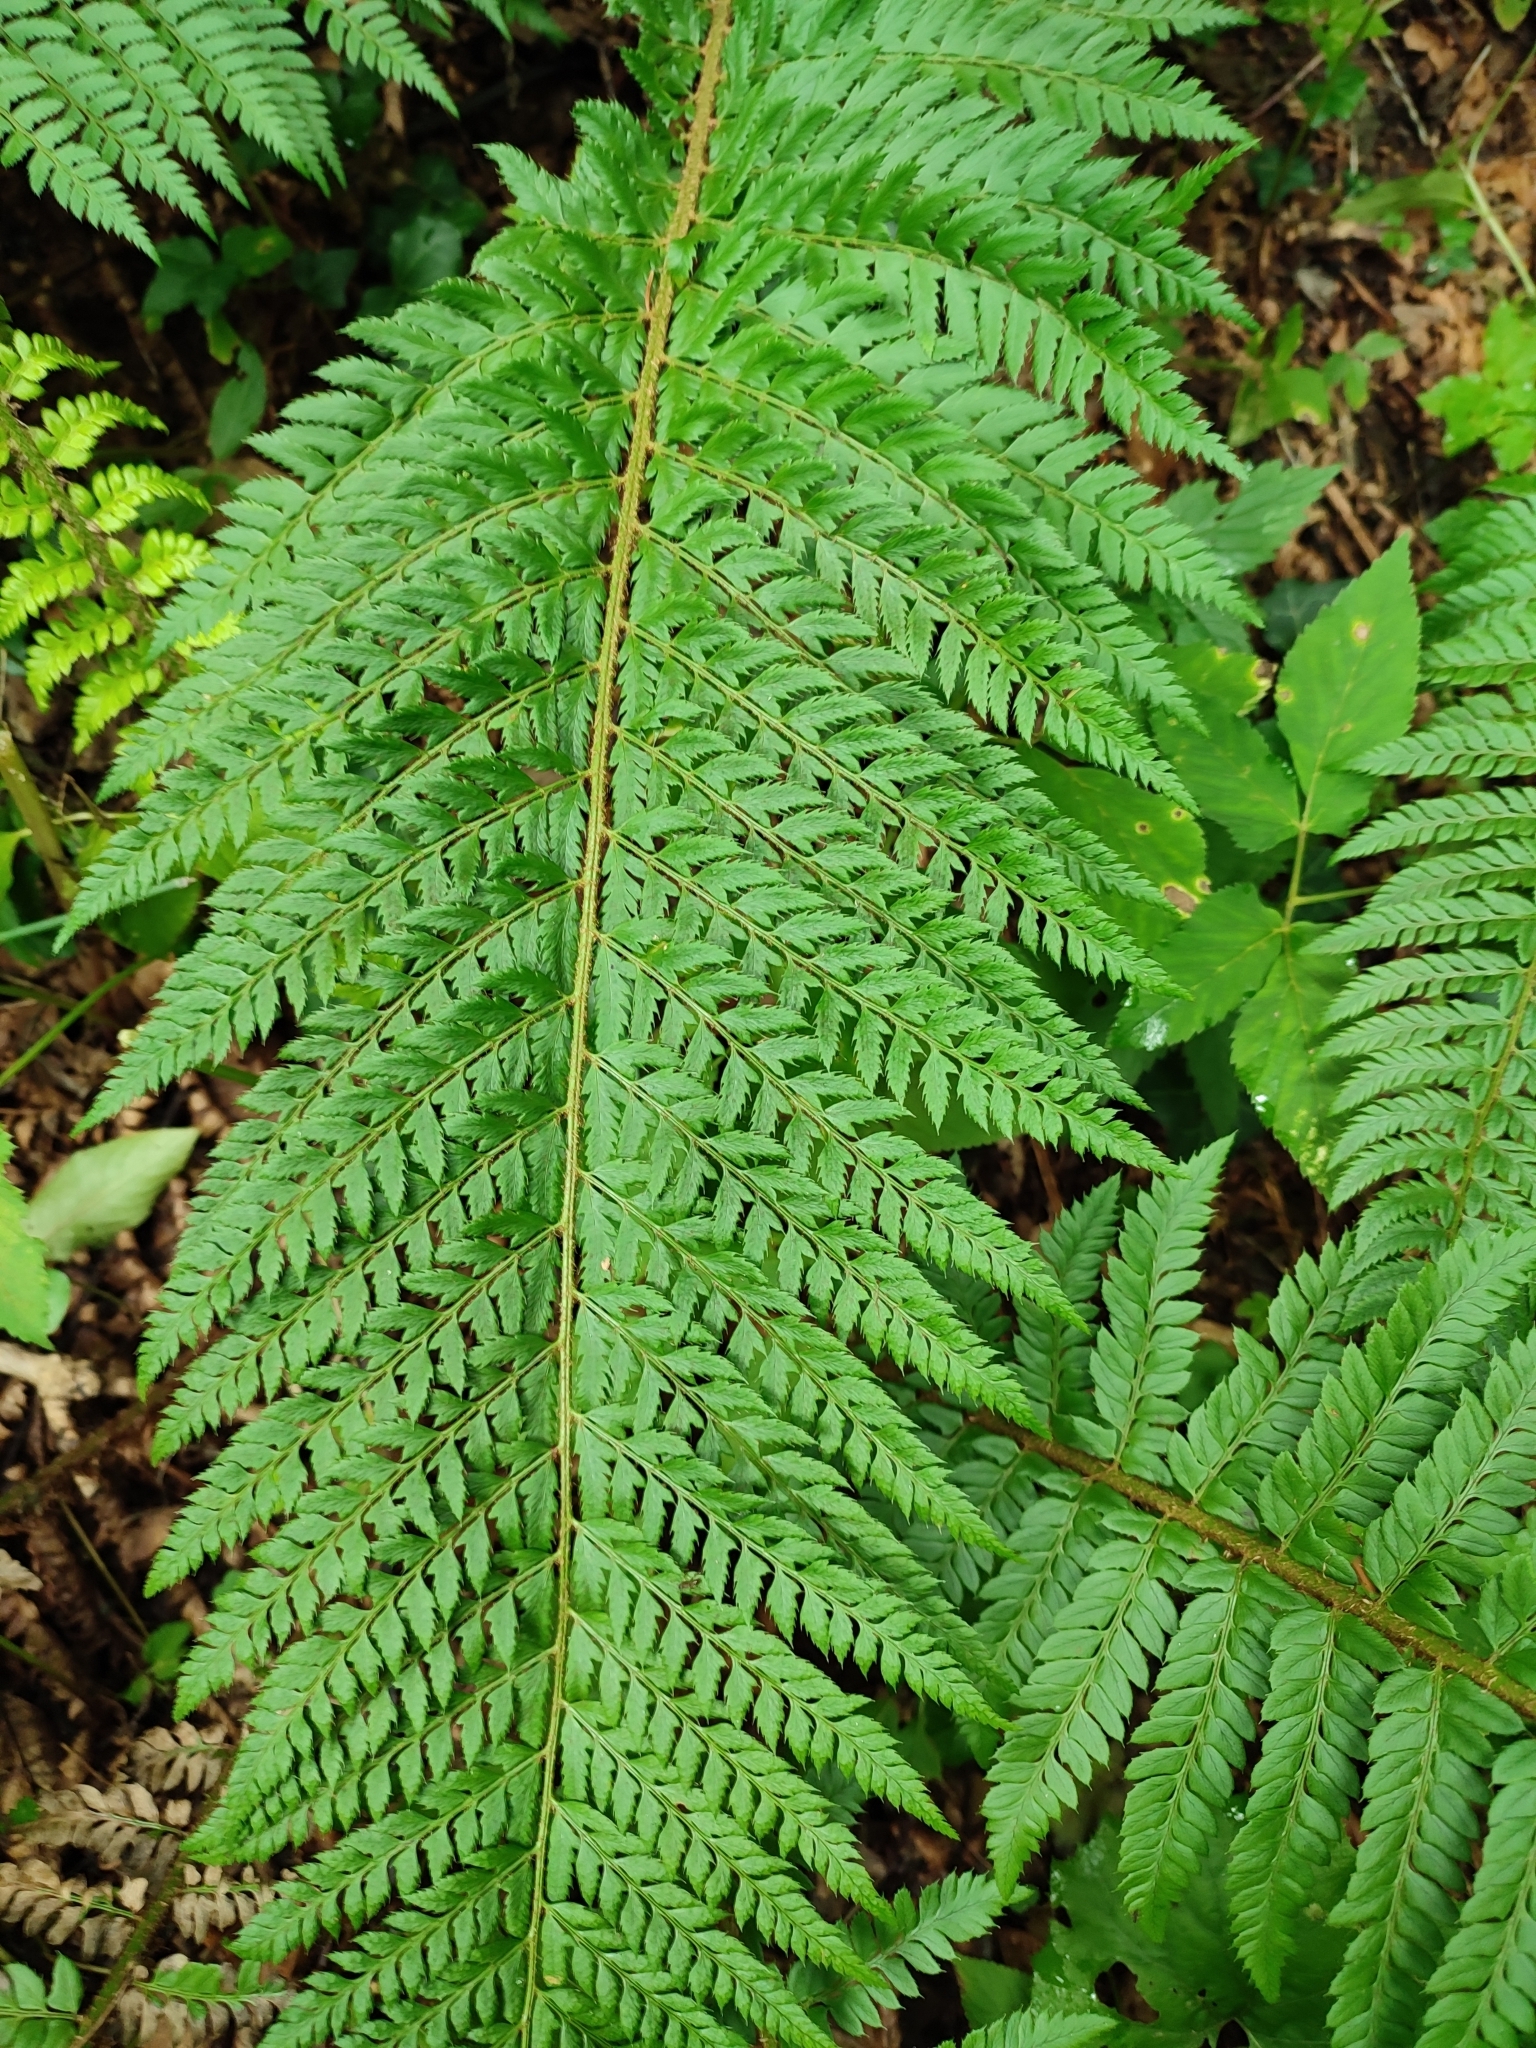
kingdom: Plantae
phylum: Tracheophyta
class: Polypodiopsida
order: Polypodiales
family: Dryopteridaceae
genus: Polystichum
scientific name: Polystichum aculeatum
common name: Hard shield-fern
